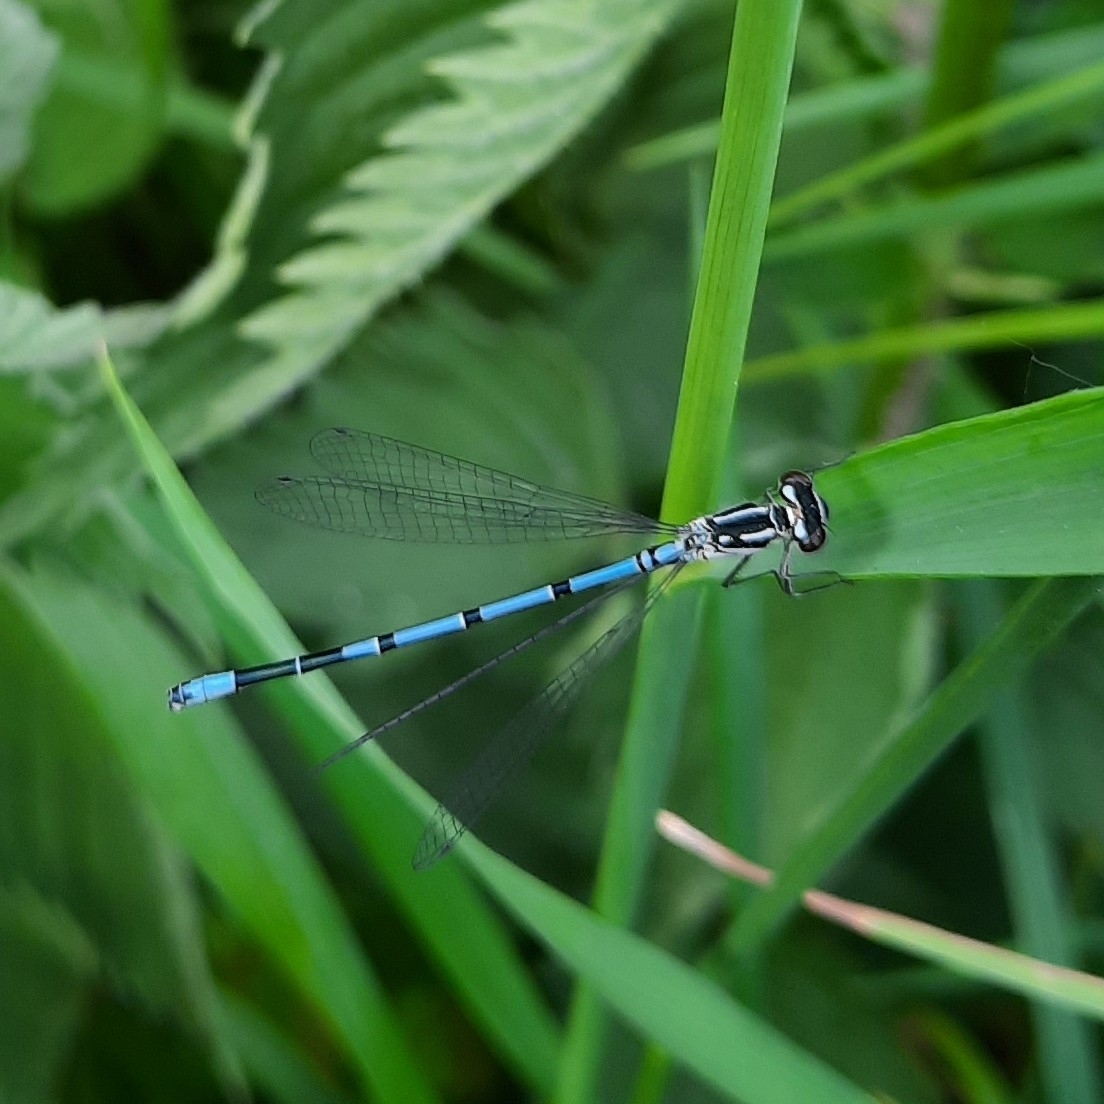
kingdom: Animalia
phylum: Arthropoda
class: Insecta
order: Odonata
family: Coenagrionidae
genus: Coenagrion
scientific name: Coenagrion puella
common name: Azure damselfly
